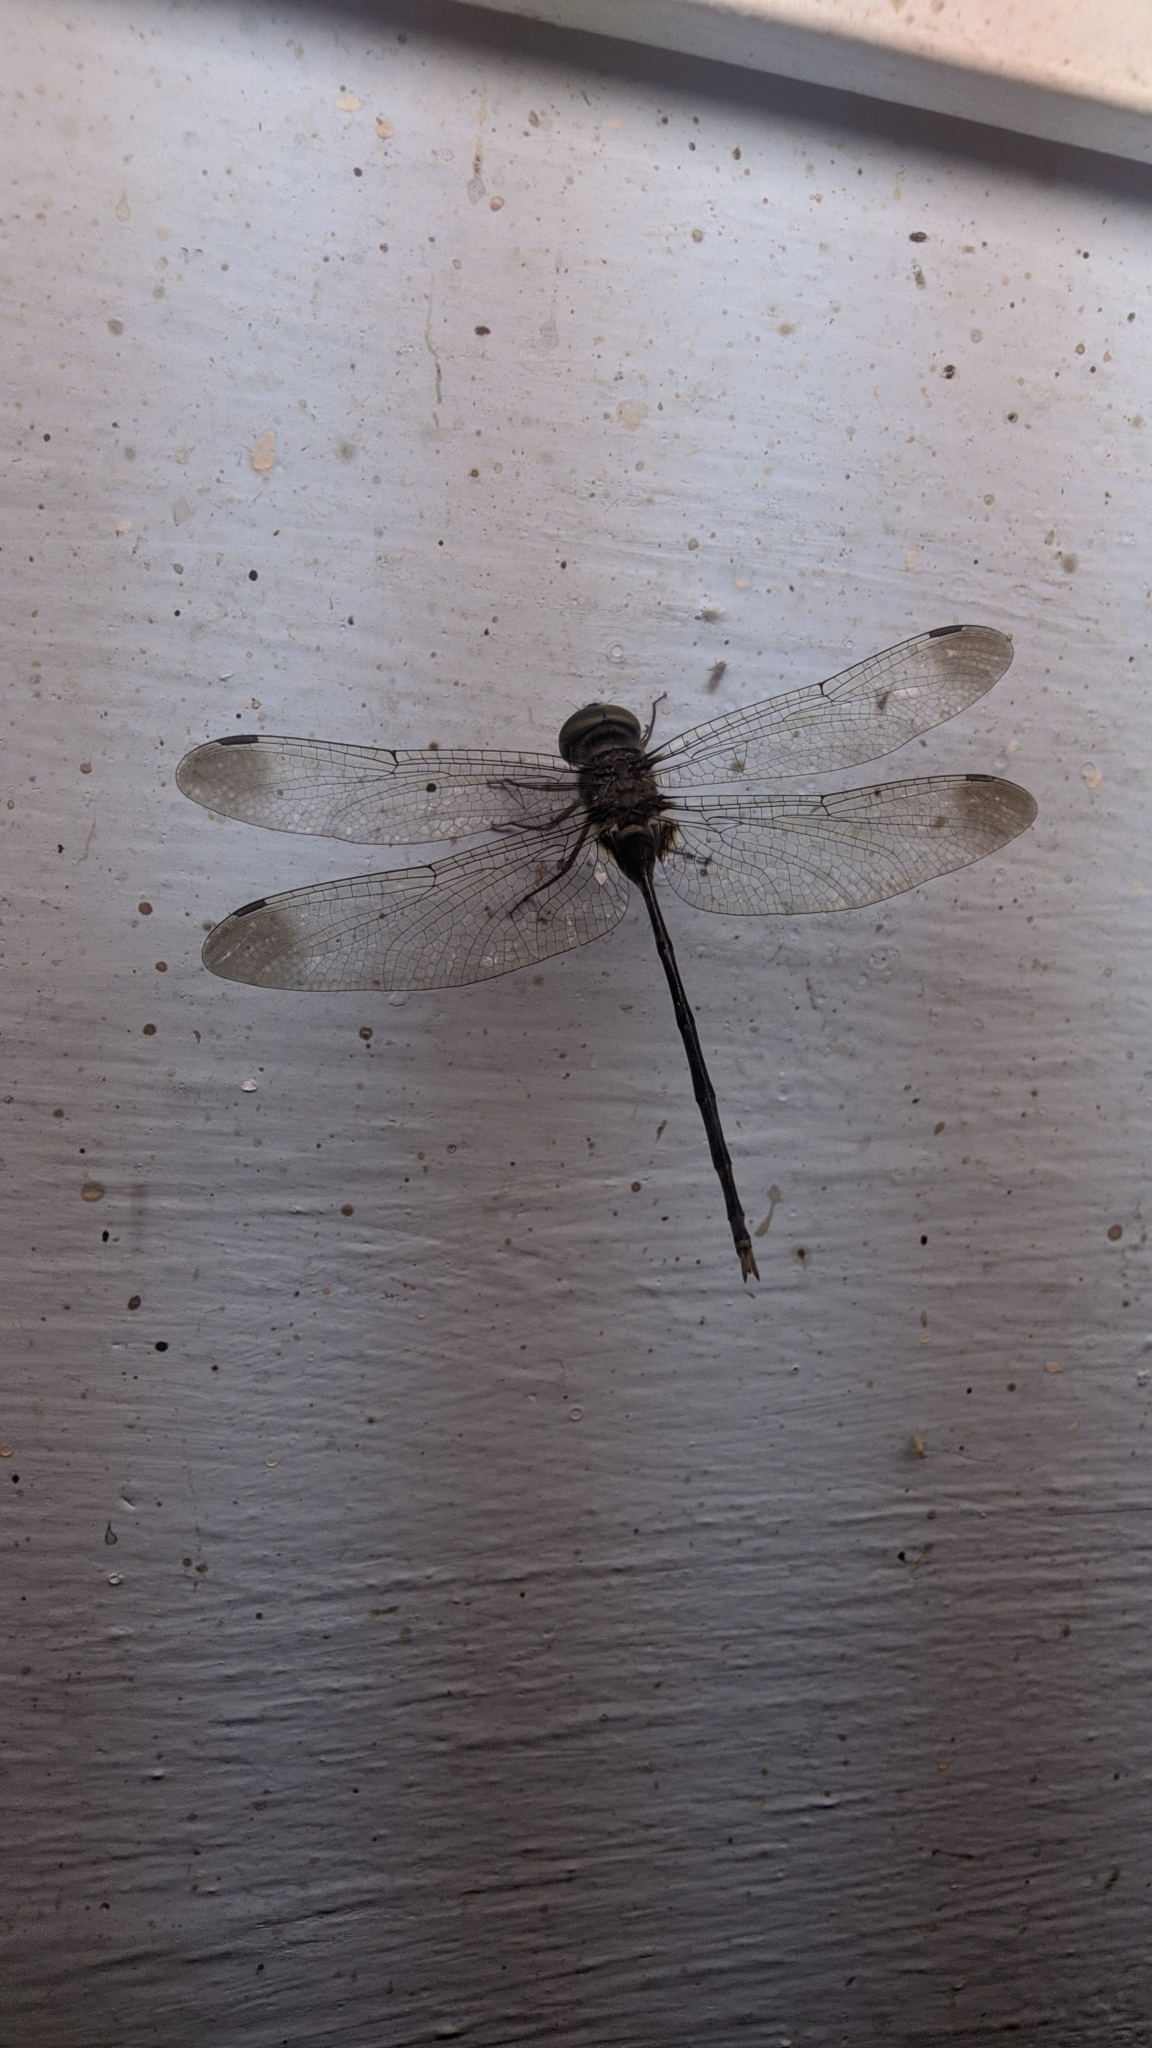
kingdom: Animalia
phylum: Arthropoda
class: Insecta
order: Odonata
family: Libellulidae
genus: Zyxomma
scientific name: Zyxomma petiolatum
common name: Dingy dusk-darter
